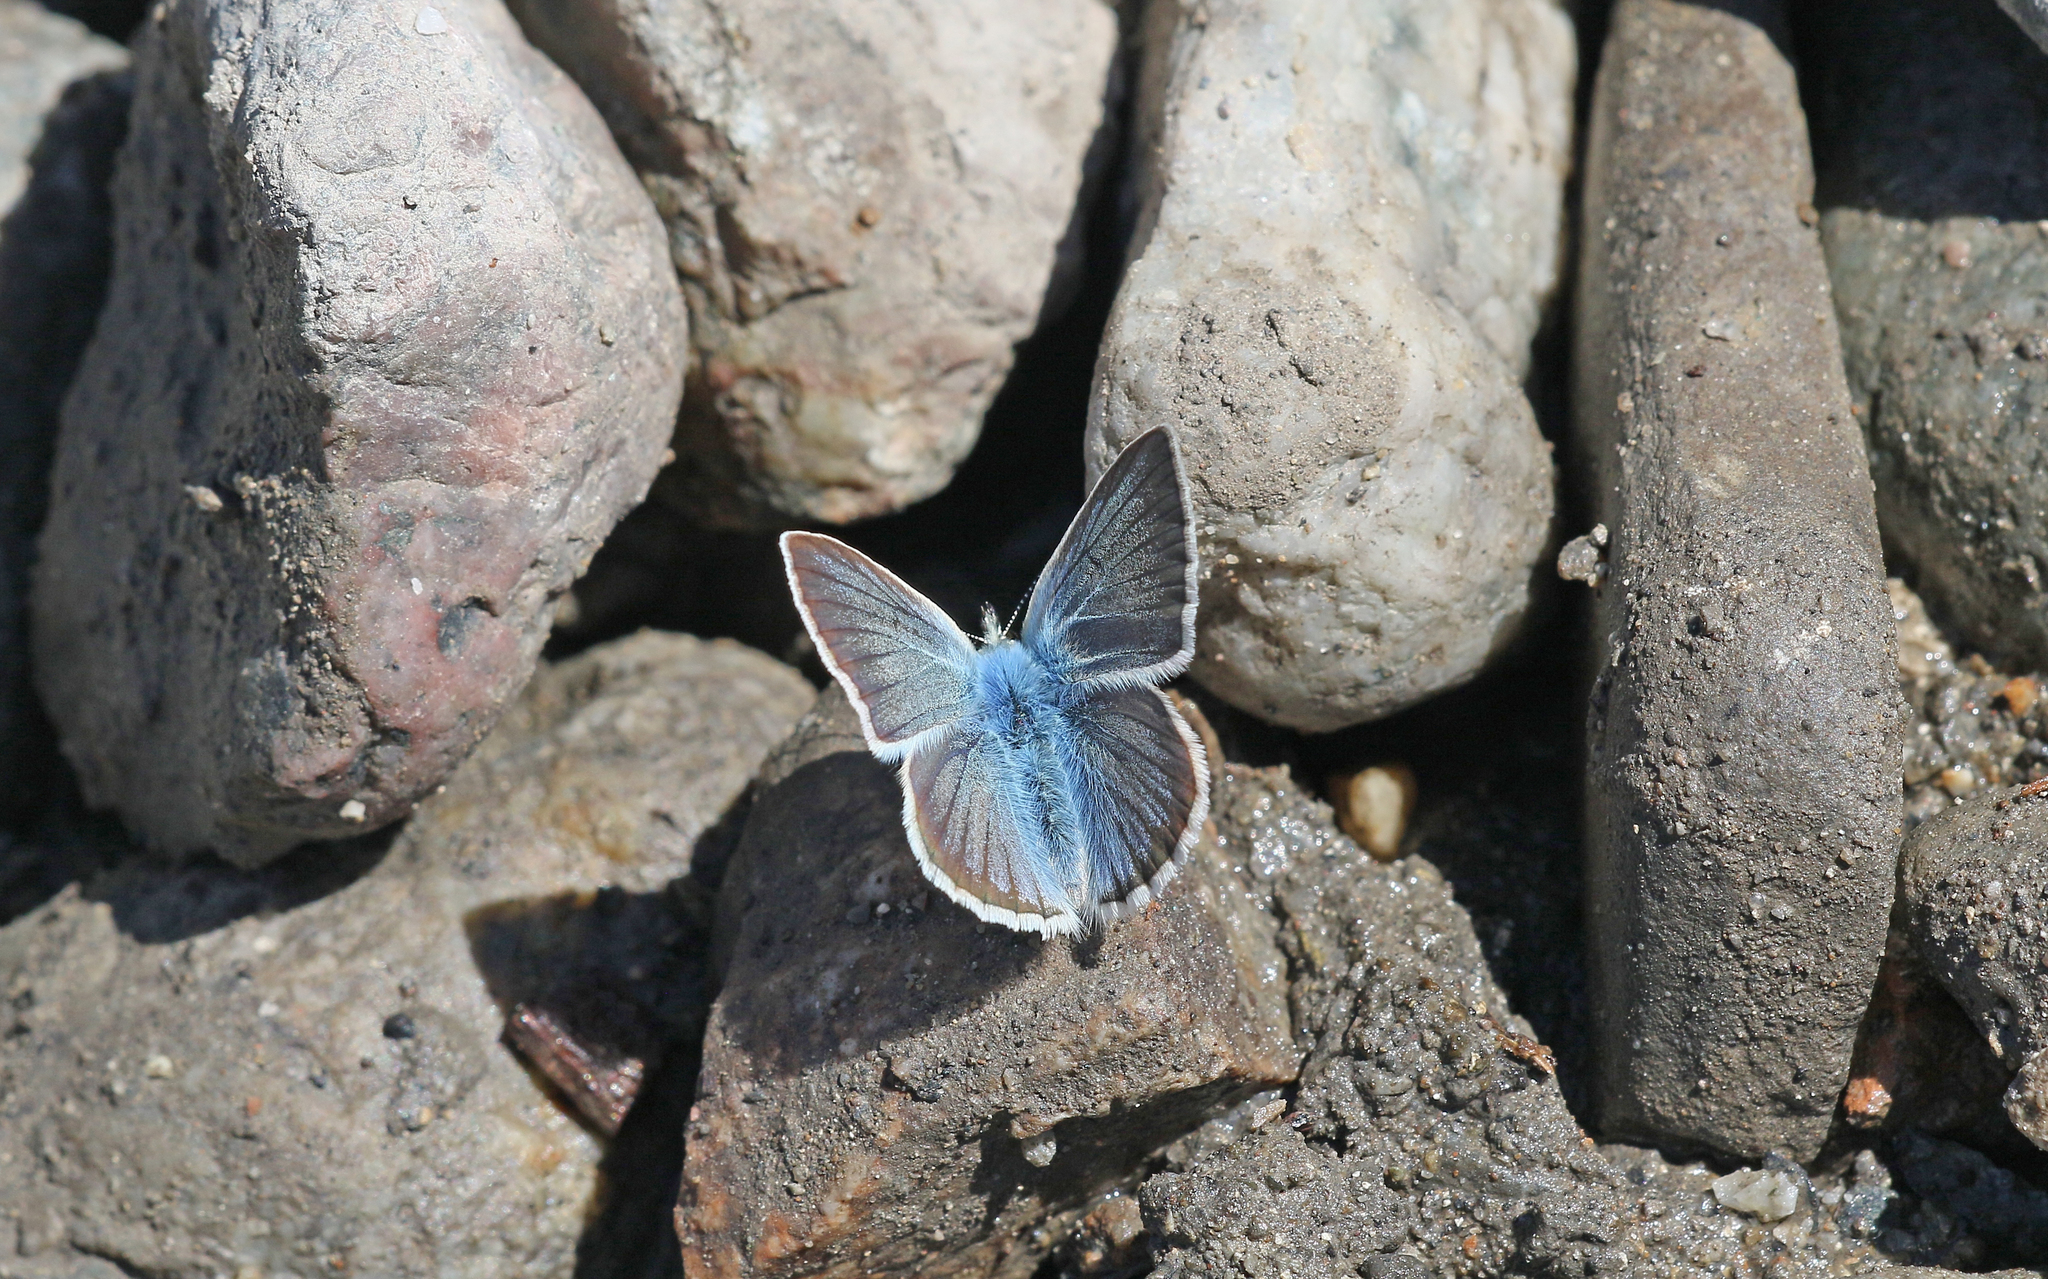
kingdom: Animalia
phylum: Arthropoda
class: Insecta
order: Lepidoptera
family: Lycaenidae
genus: Agrodiaetus
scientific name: Agrodiaetus damon
